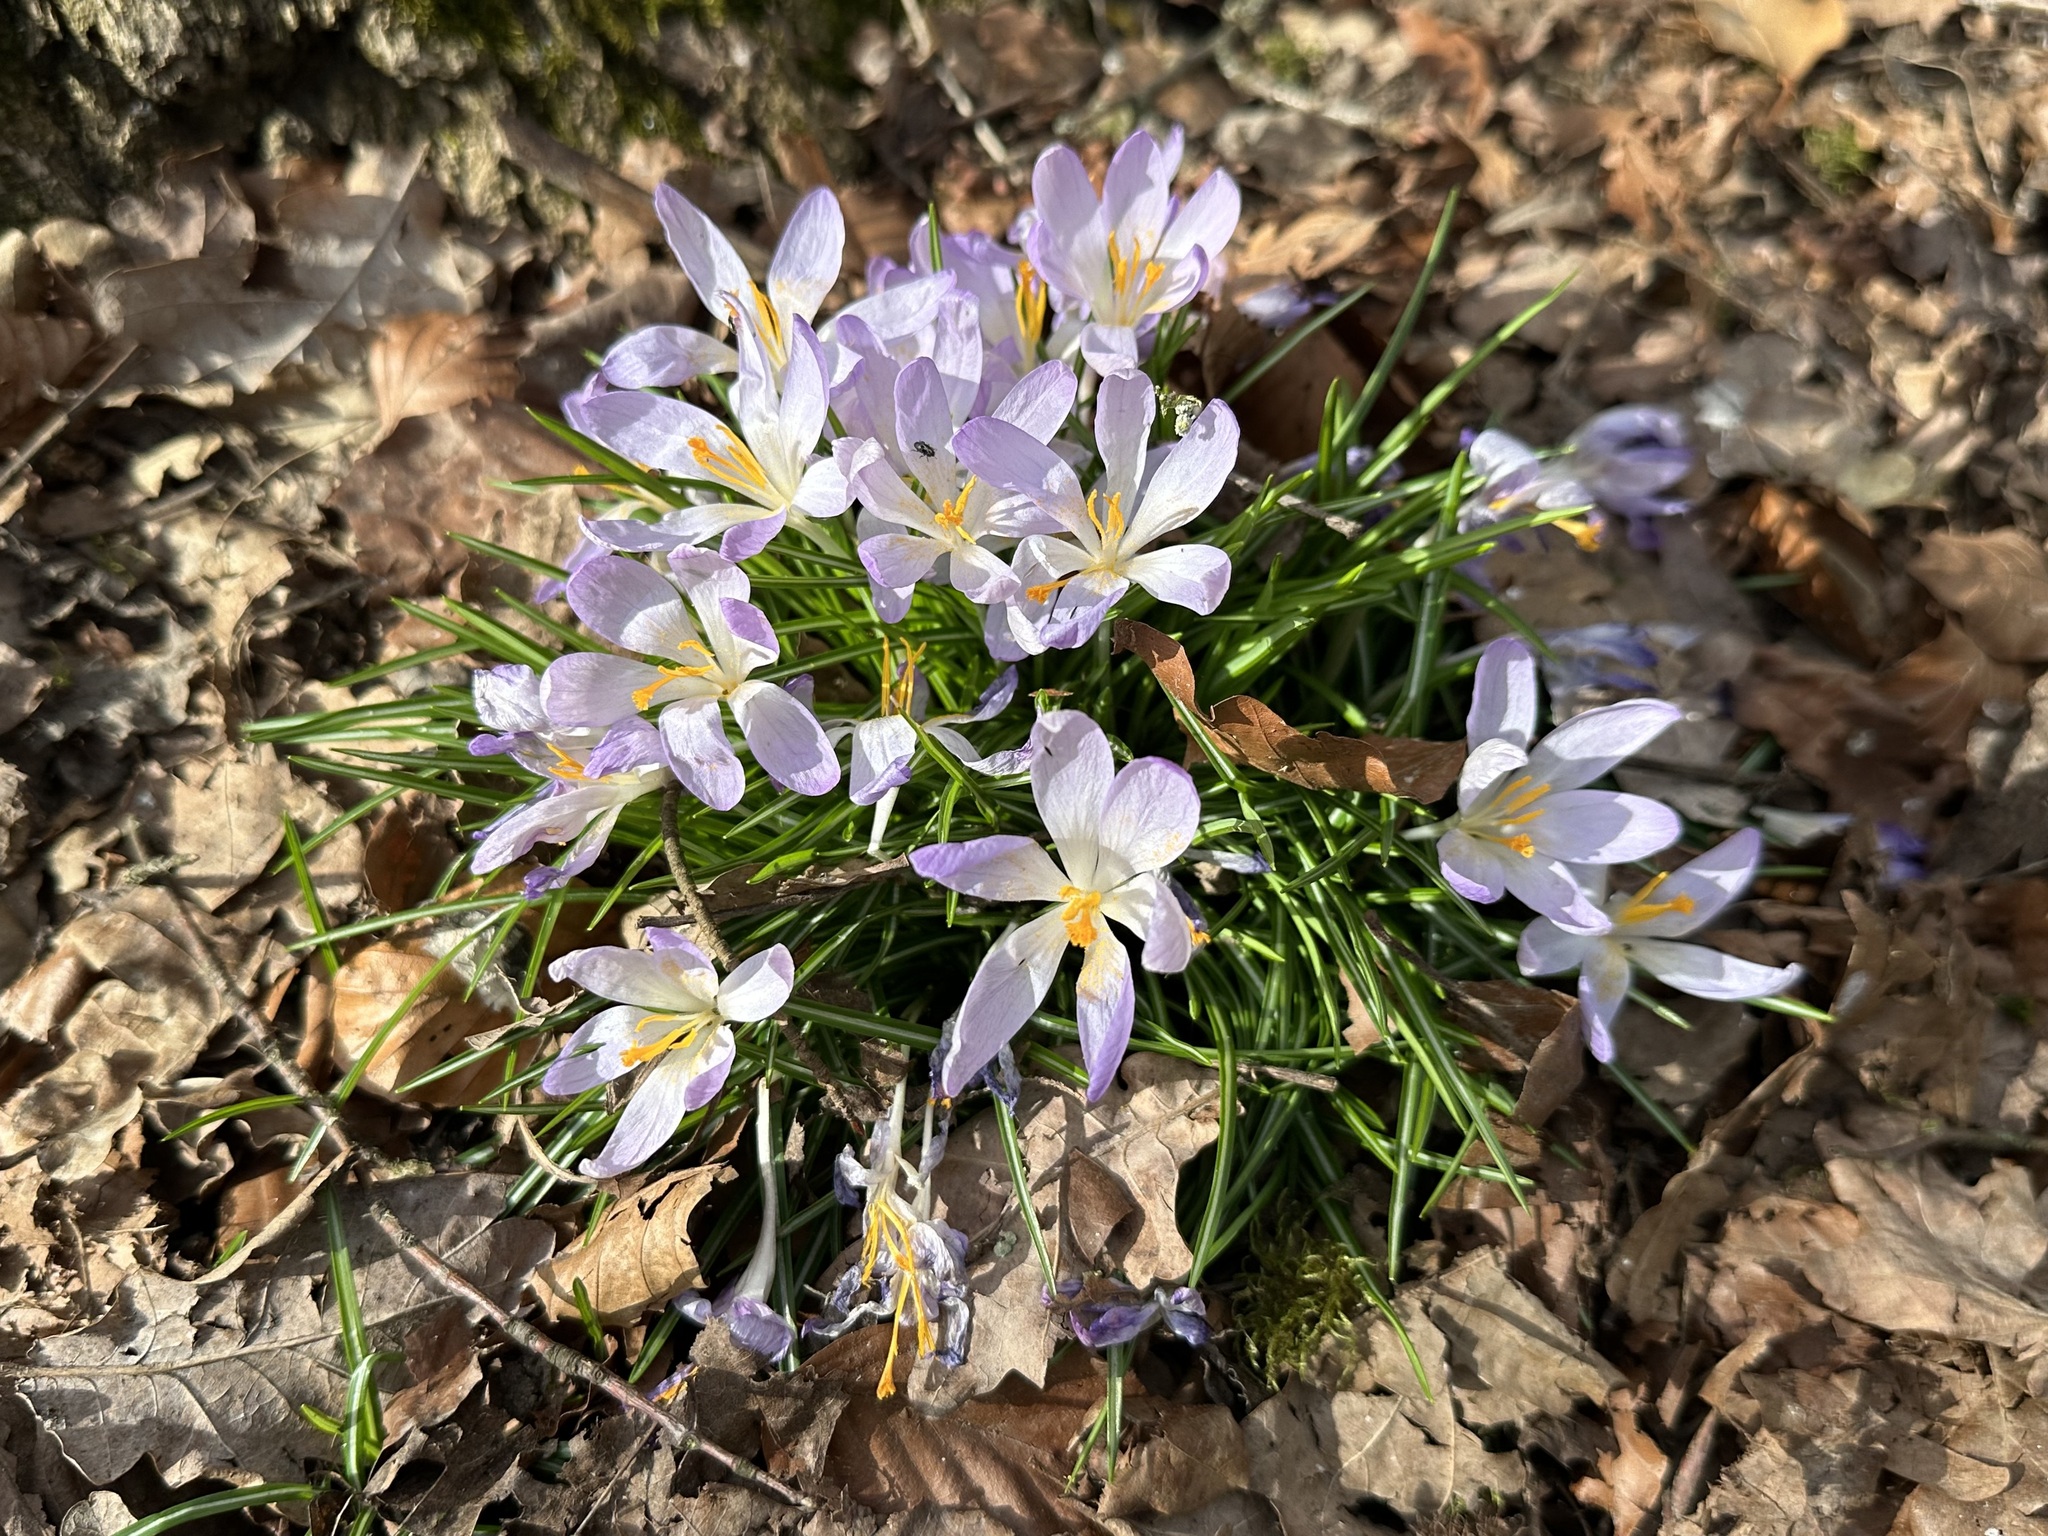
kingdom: Plantae
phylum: Tracheophyta
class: Liliopsida
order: Asparagales
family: Iridaceae
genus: Crocus
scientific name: Crocus tommasinianus
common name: Early crocus
